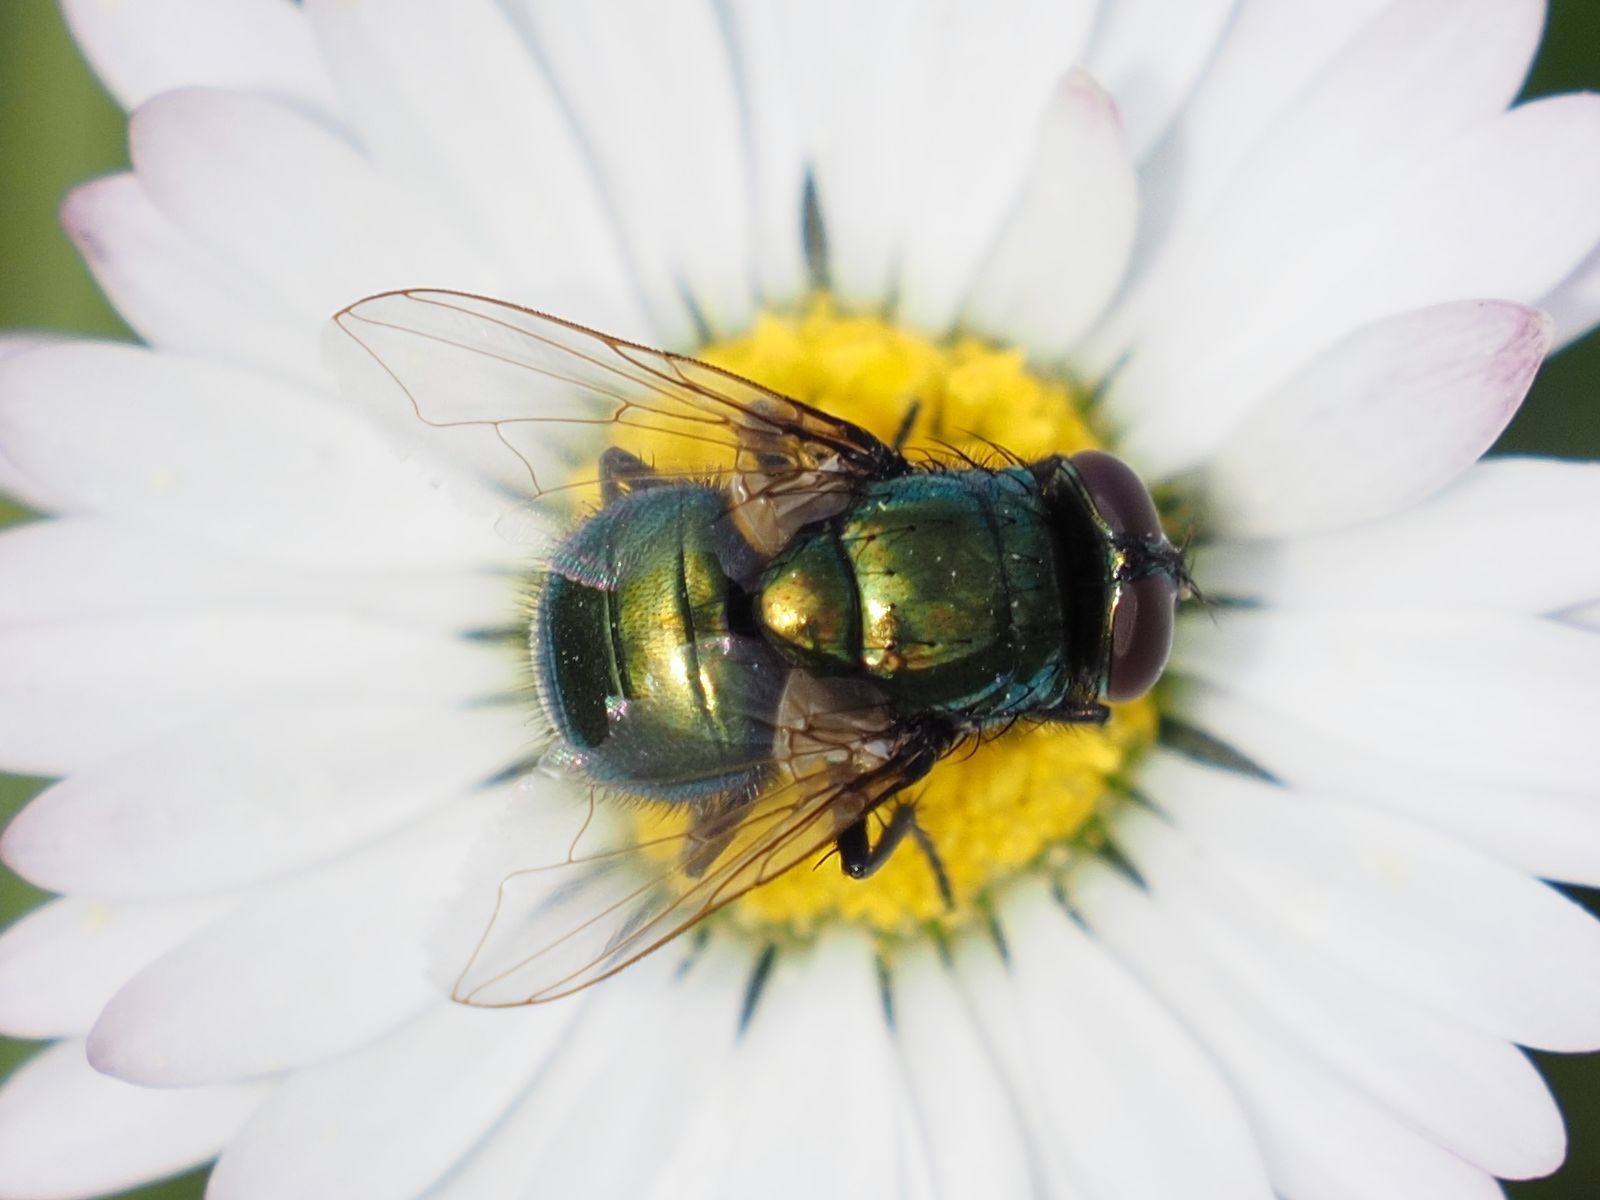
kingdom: Animalia
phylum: Arthropoda
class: Insecta
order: Diptera
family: Muscidae
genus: Neomyia
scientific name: Neomyia cornicina
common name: House fly
